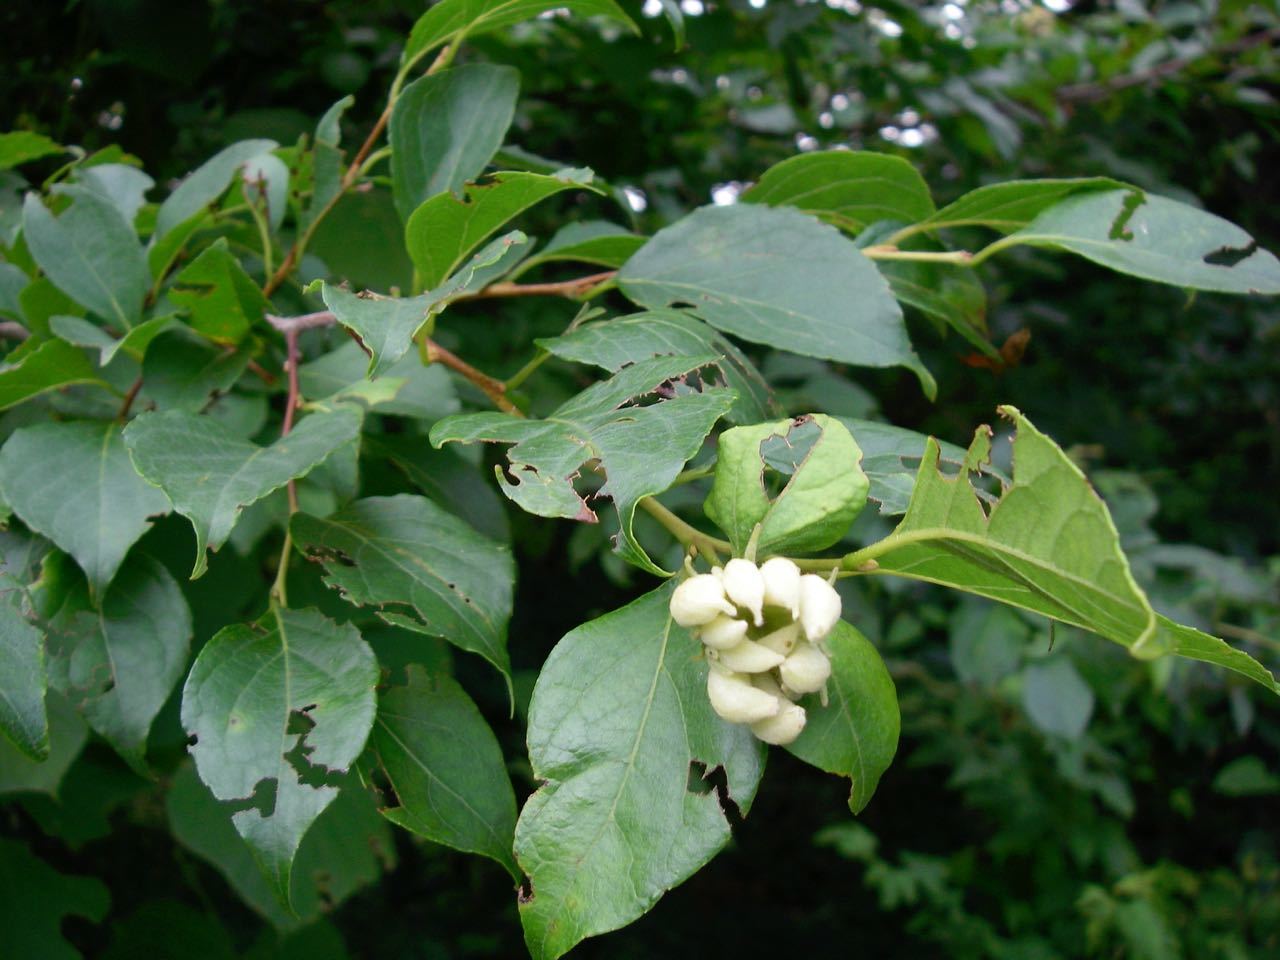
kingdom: Animalia
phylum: Arthropoda
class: Insecta
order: Hemiptera
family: Aphididae
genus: Ceratovacuna
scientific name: Ceratovacuna nekoashi
